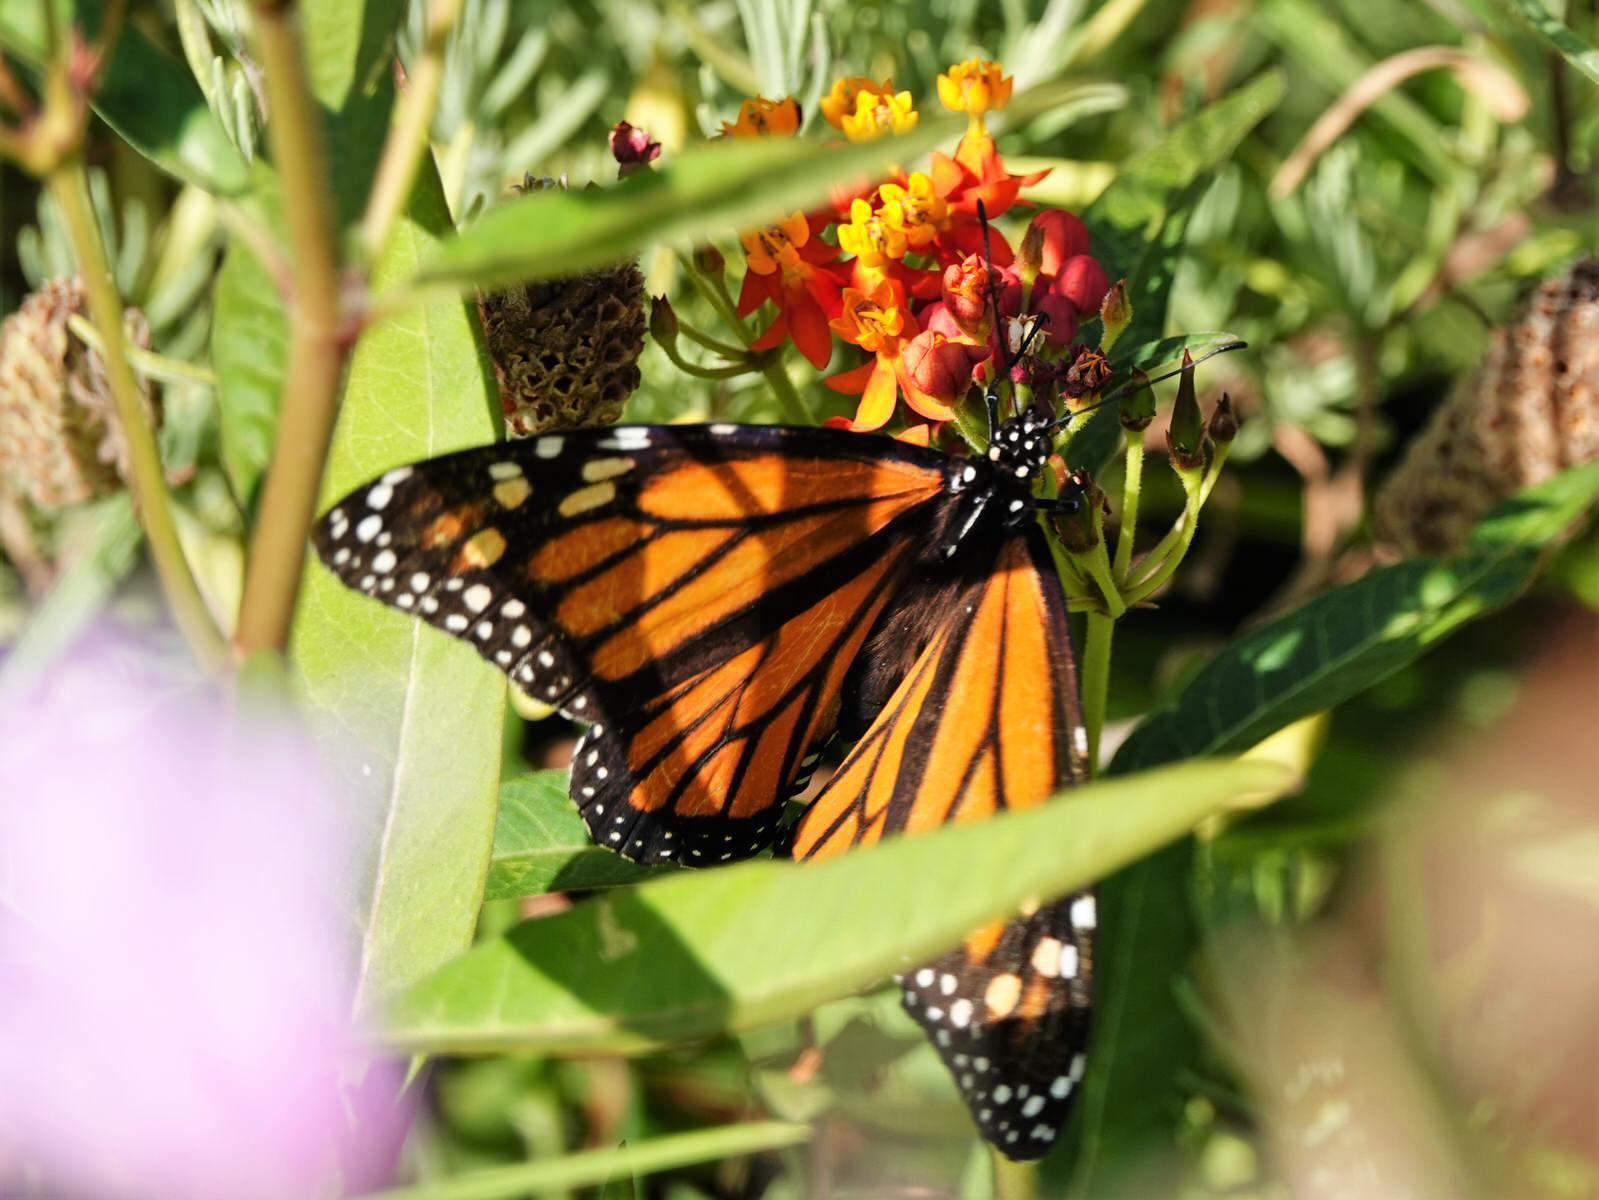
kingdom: Animalia
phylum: Arthropoda
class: Insecta
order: Lepidoptera
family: Nymphalidae
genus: Danaus
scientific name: Danaus plexippus
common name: Monarch
